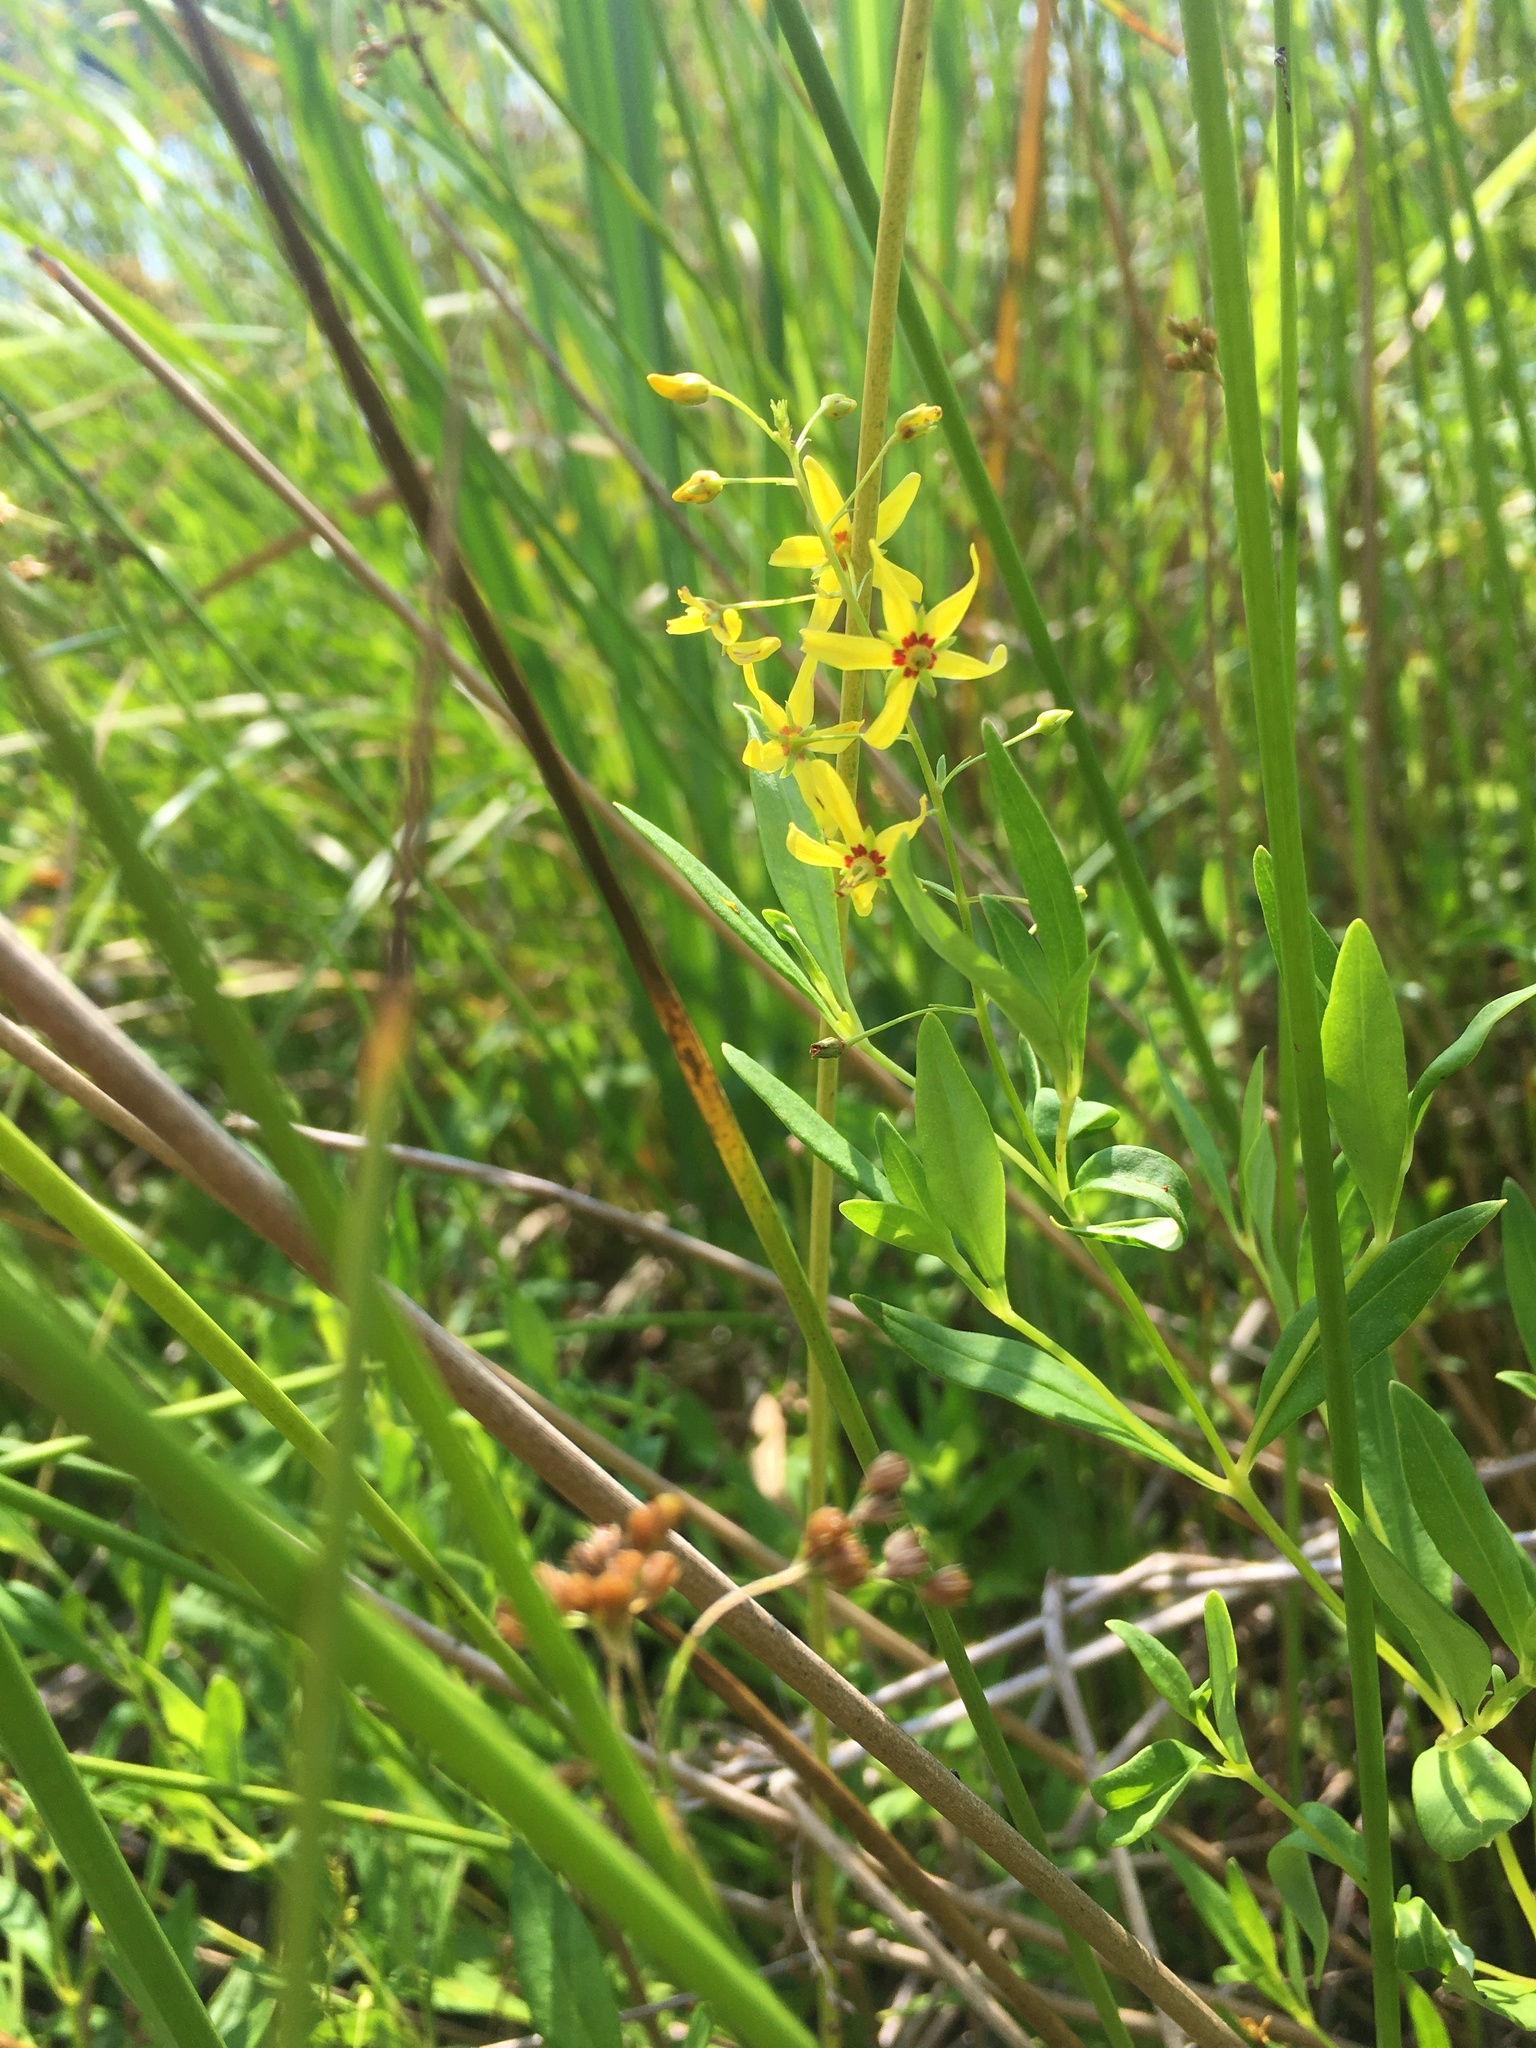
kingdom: Plantae
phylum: Tracheophyta
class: Magnoliopsida
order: Ericales
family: Primulaceae
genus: Lysimachia
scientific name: Lysimachia terrestris
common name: Lake loosestrife
